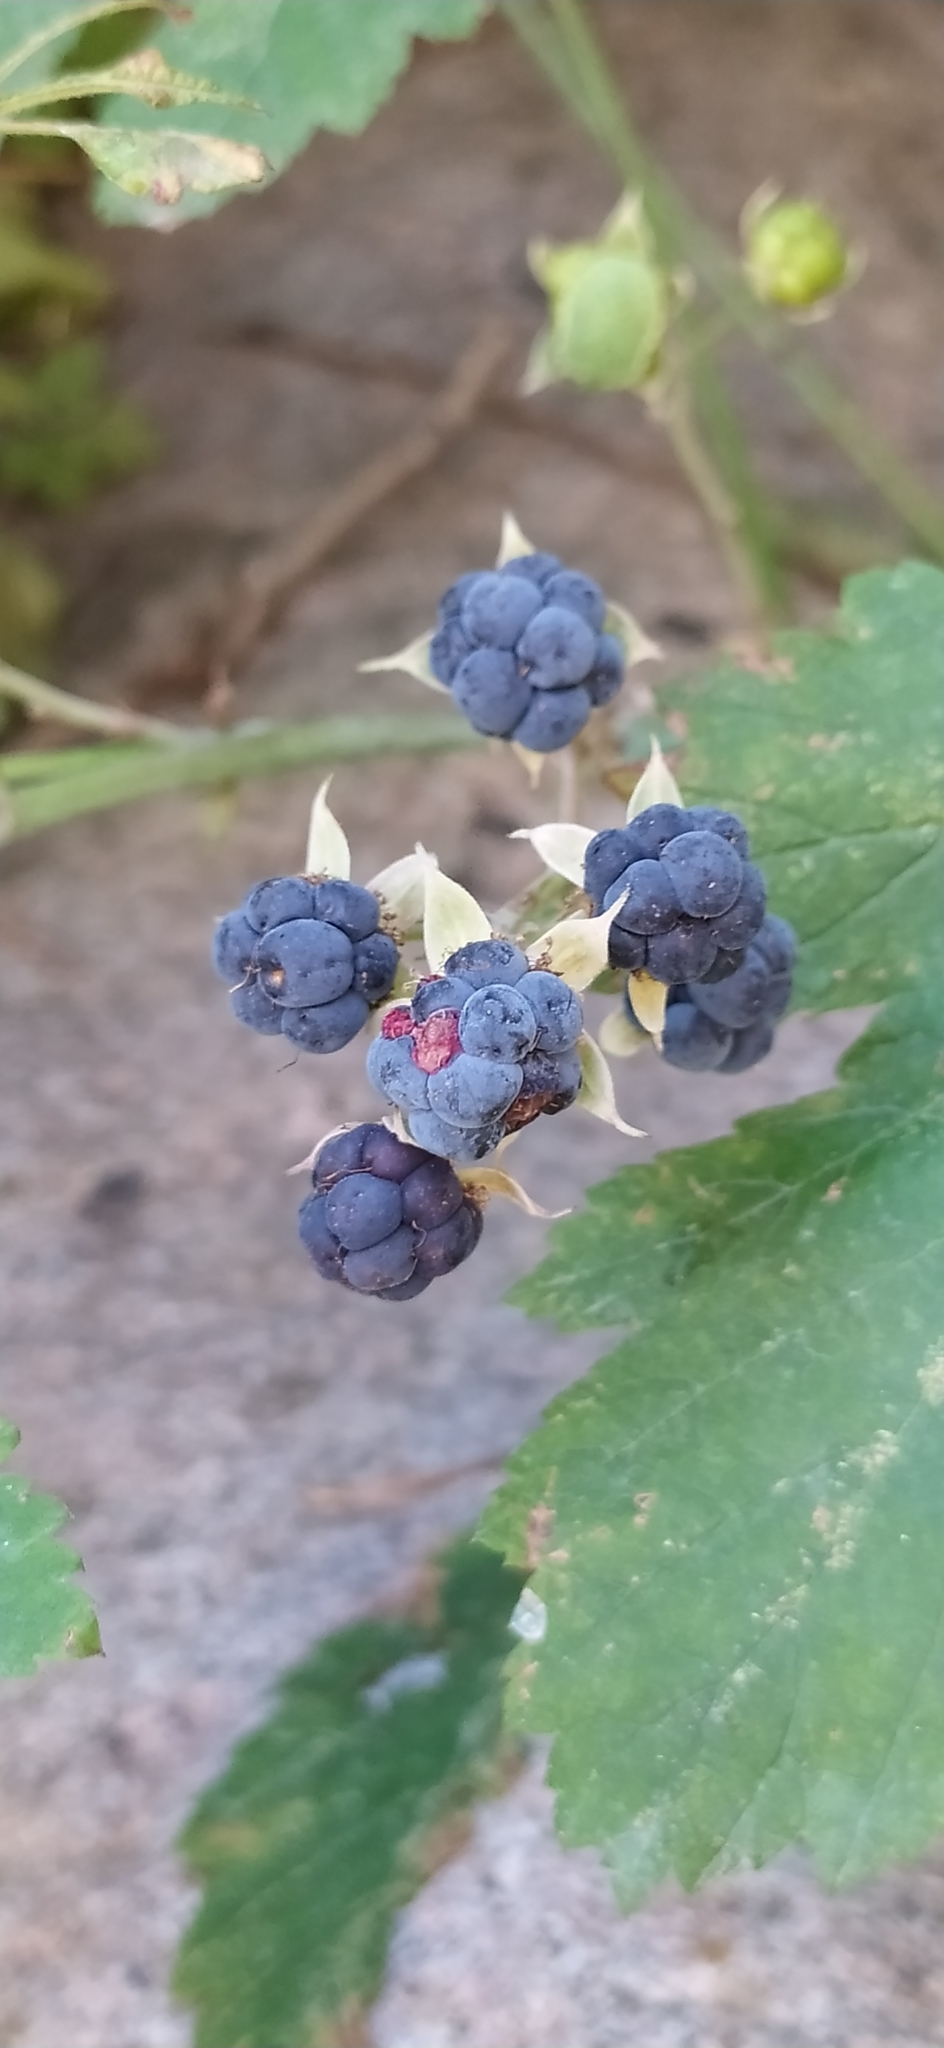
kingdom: Plantae
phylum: Tracheophyta
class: Magnoliopsida
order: Rosales
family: Rosaceae
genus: Rubus
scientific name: Rubus caesius
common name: Dewberry
